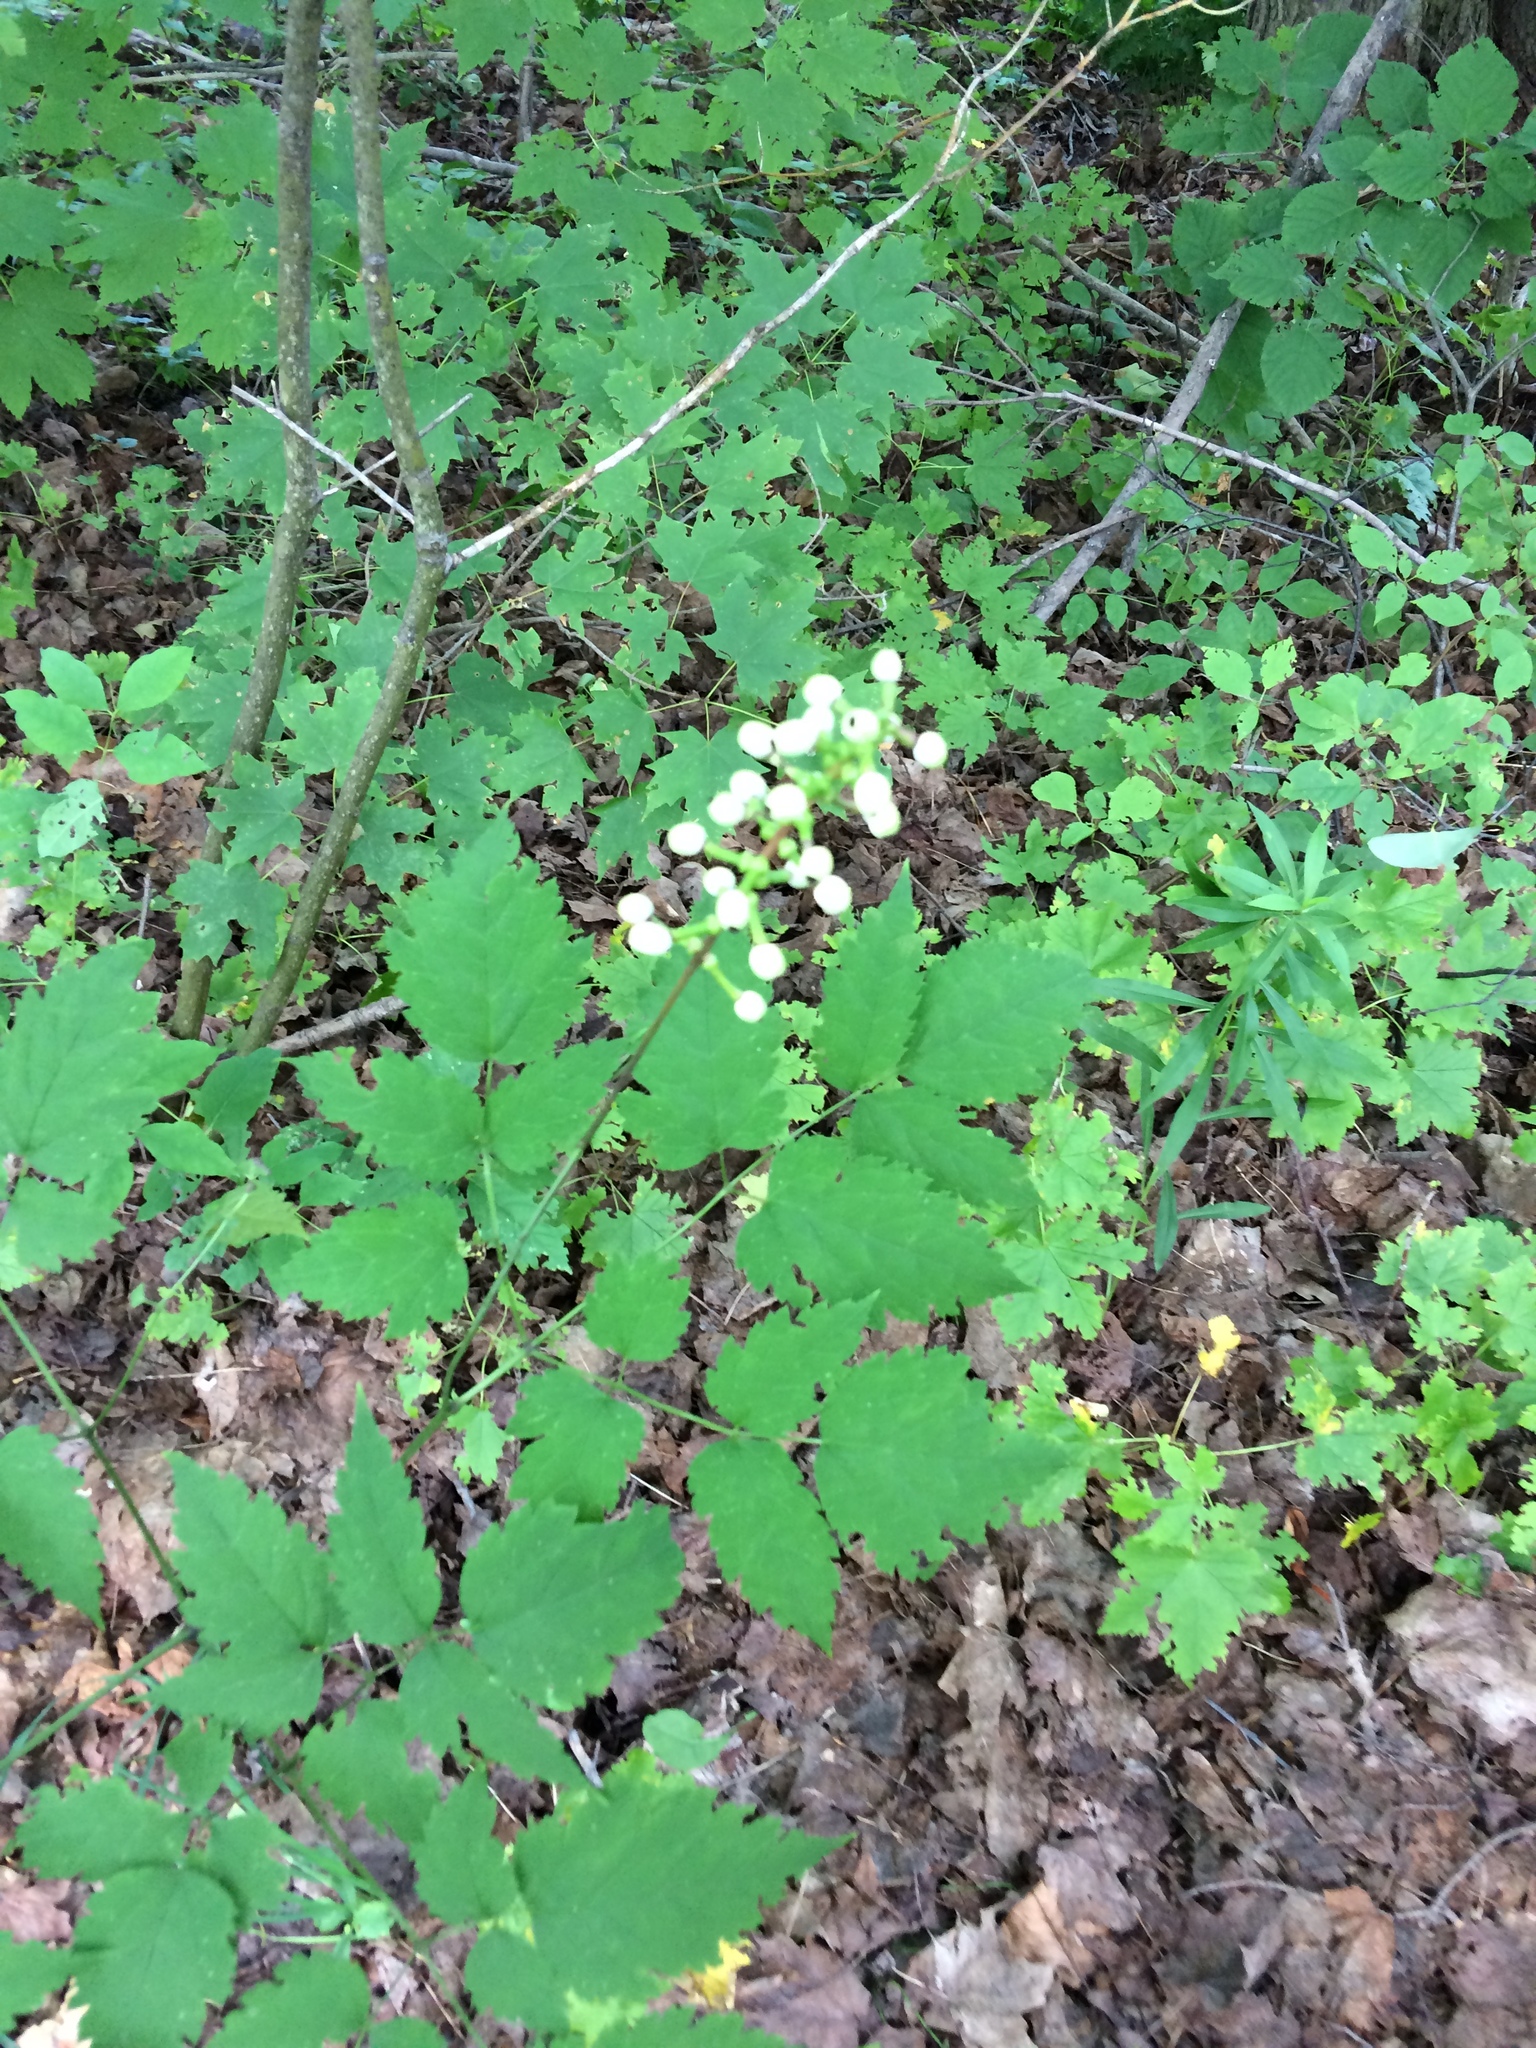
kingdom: Plantae
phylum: Tracheophyta
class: Magnoliopsida
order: Ranunculales
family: Ranunculaceae
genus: Actaea
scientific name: Actaea pachypoda
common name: Doll's-eyes
